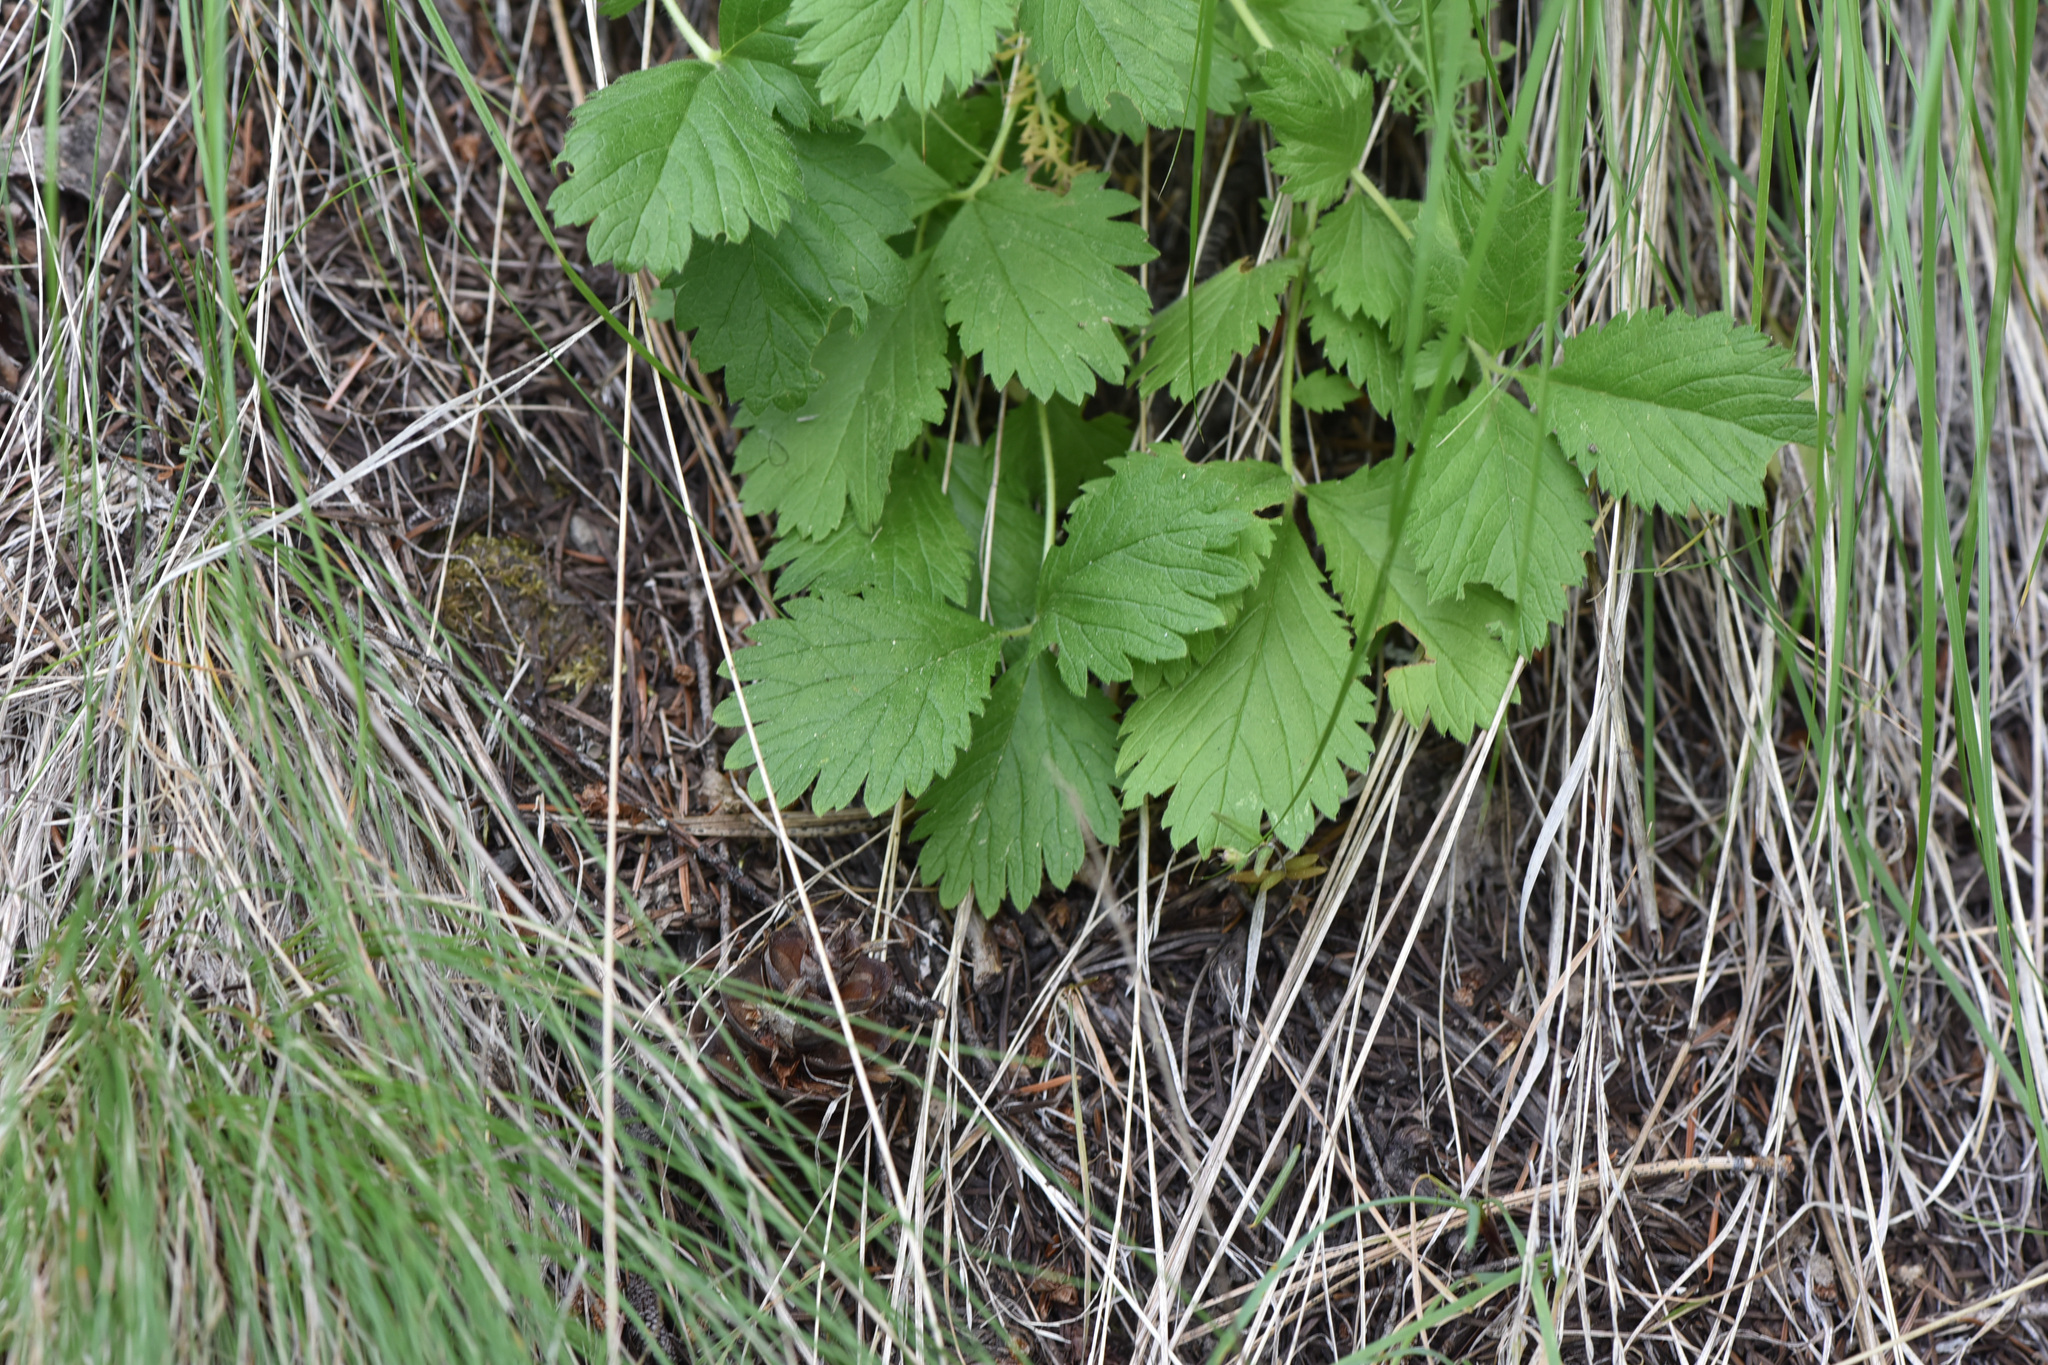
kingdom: Plantae
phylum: Tracheophyta
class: Magnoliopsida
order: Rosales
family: Rosaceae
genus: Drymocallis
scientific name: Drymocallis convallaria
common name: Cream cinquefoil
